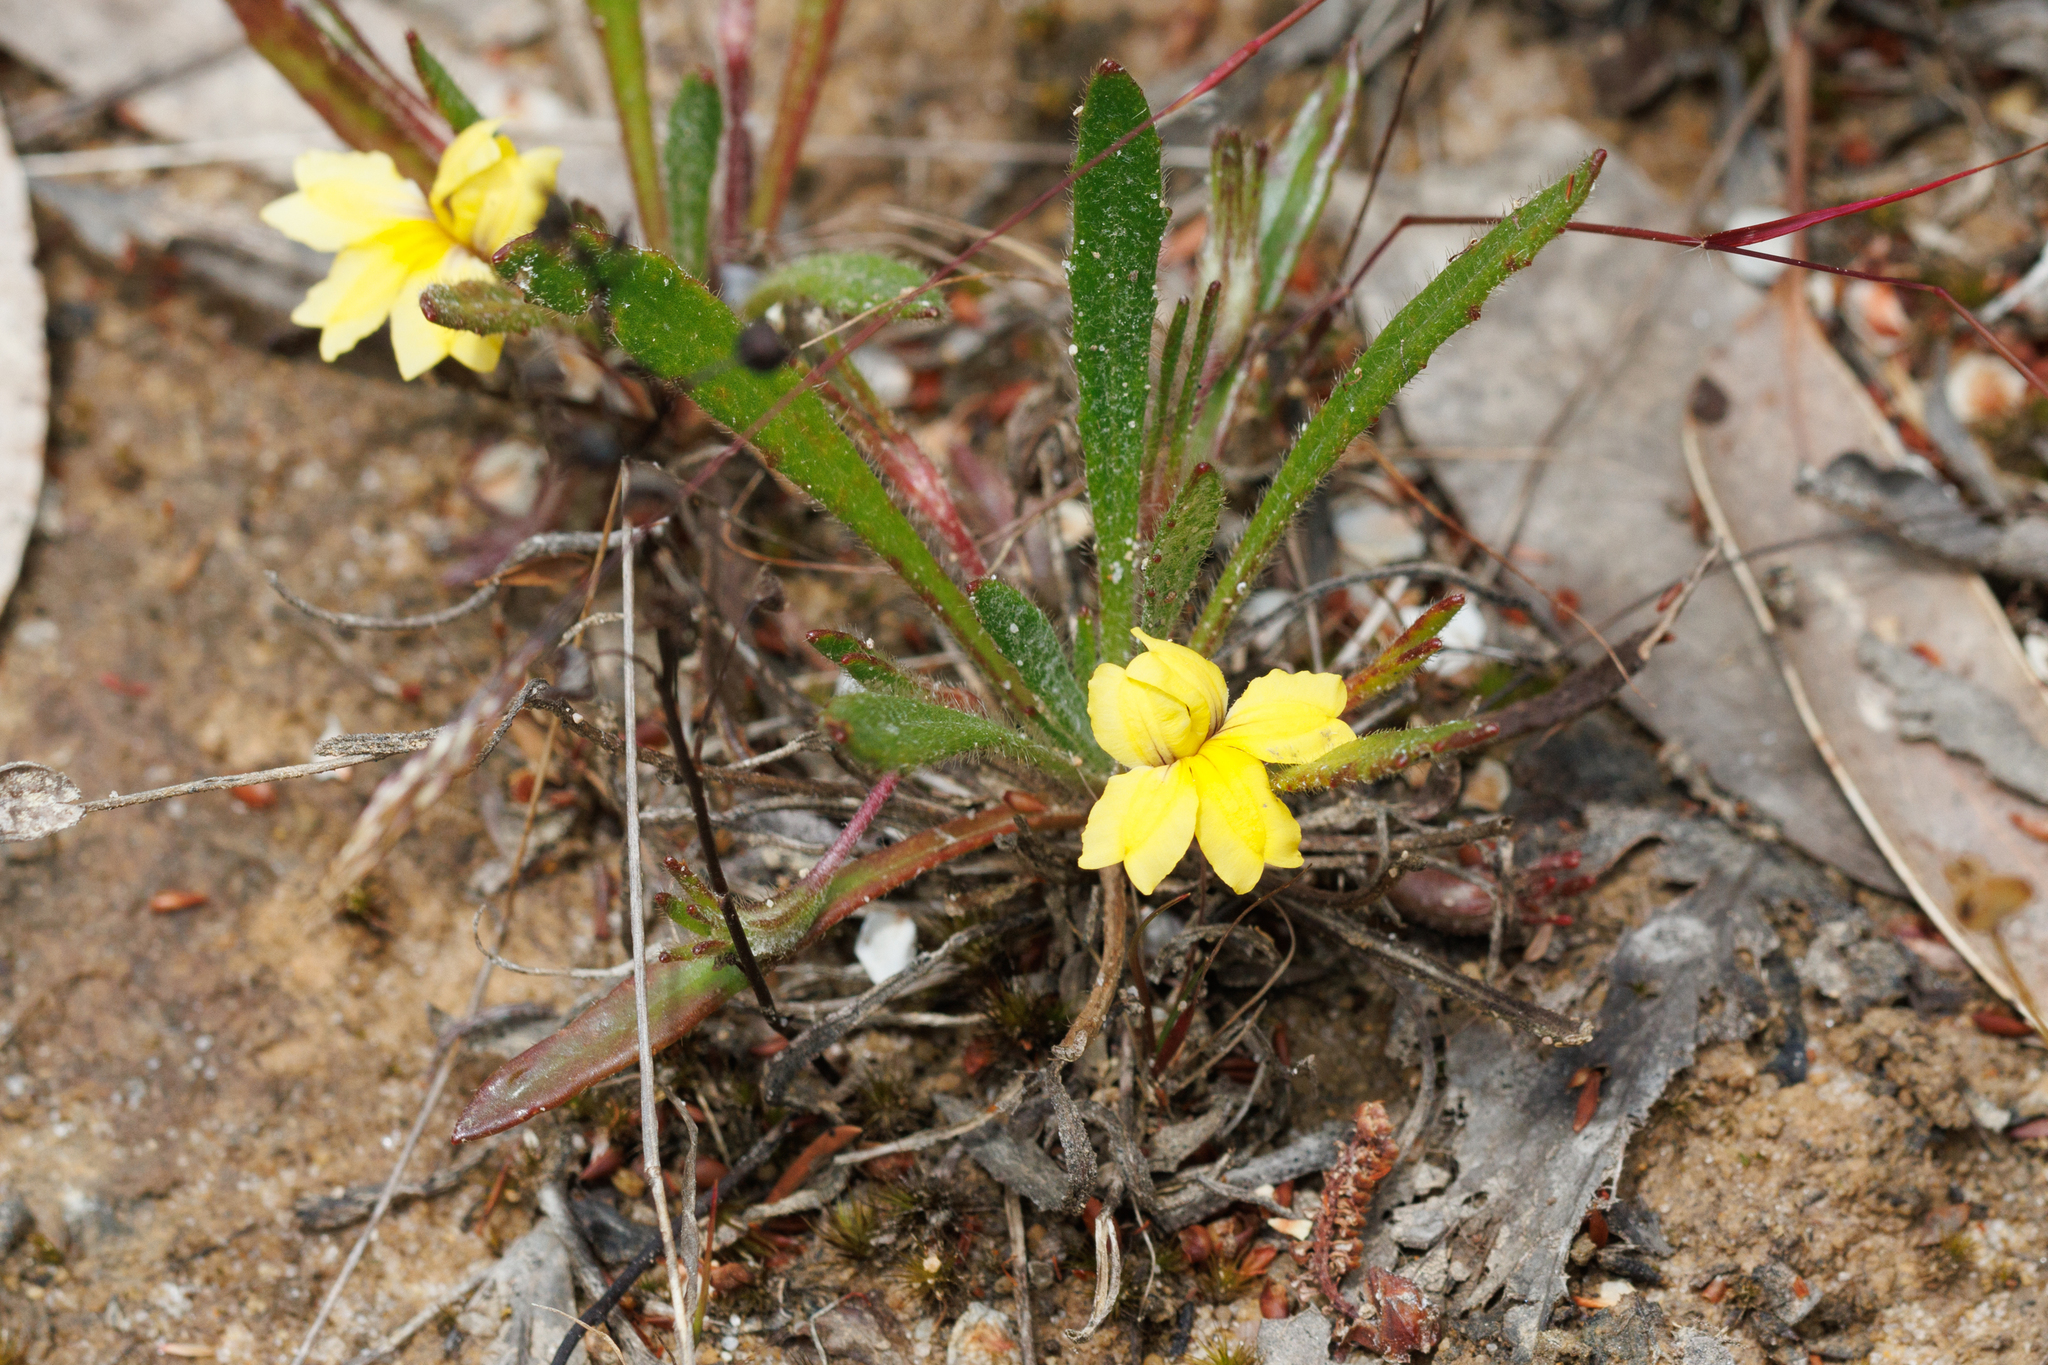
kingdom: Plantae
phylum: Tracheophyta
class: Magnoliopsida
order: Asterales
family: Goodeniaceae
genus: Goodenia
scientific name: Goodenia geniculata
